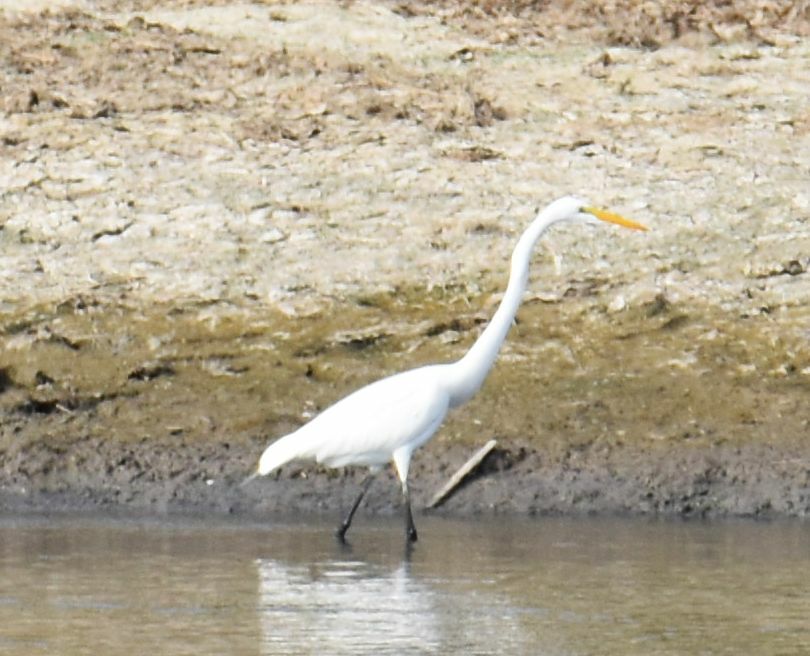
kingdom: Animalia
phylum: Chordata
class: Aves
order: Pelecaniformes
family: Ardeidae
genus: Ardea
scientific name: Ardea alba
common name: Great egret
